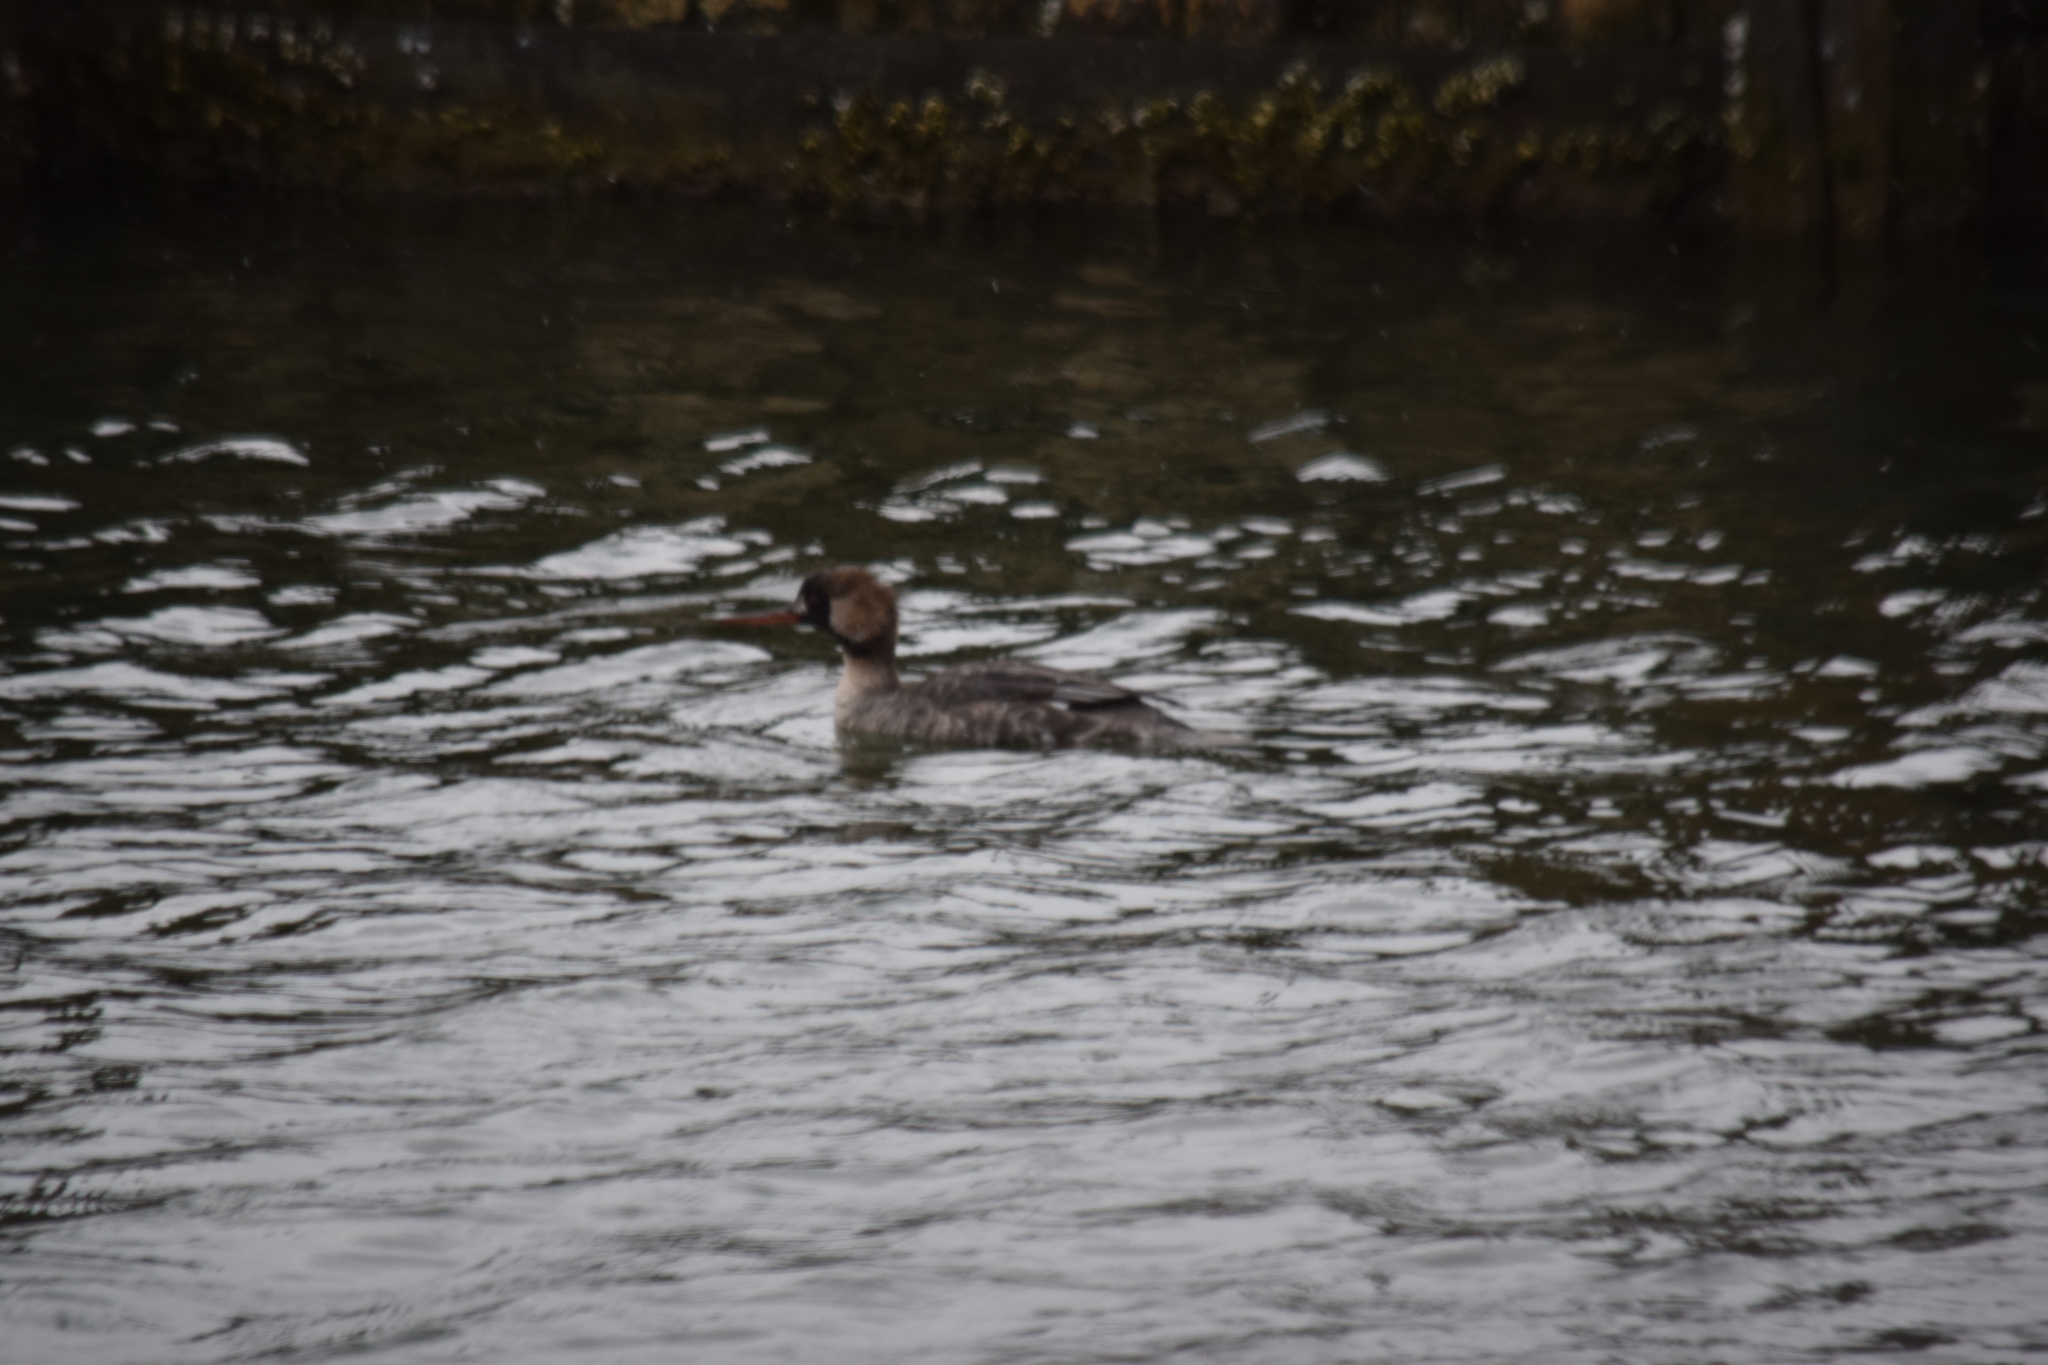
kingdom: Animalia
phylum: Chordata
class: Aves
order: Anseriformes
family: Anatidae
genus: Mergus
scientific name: Mergus serrator
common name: Red-breasted merganser
